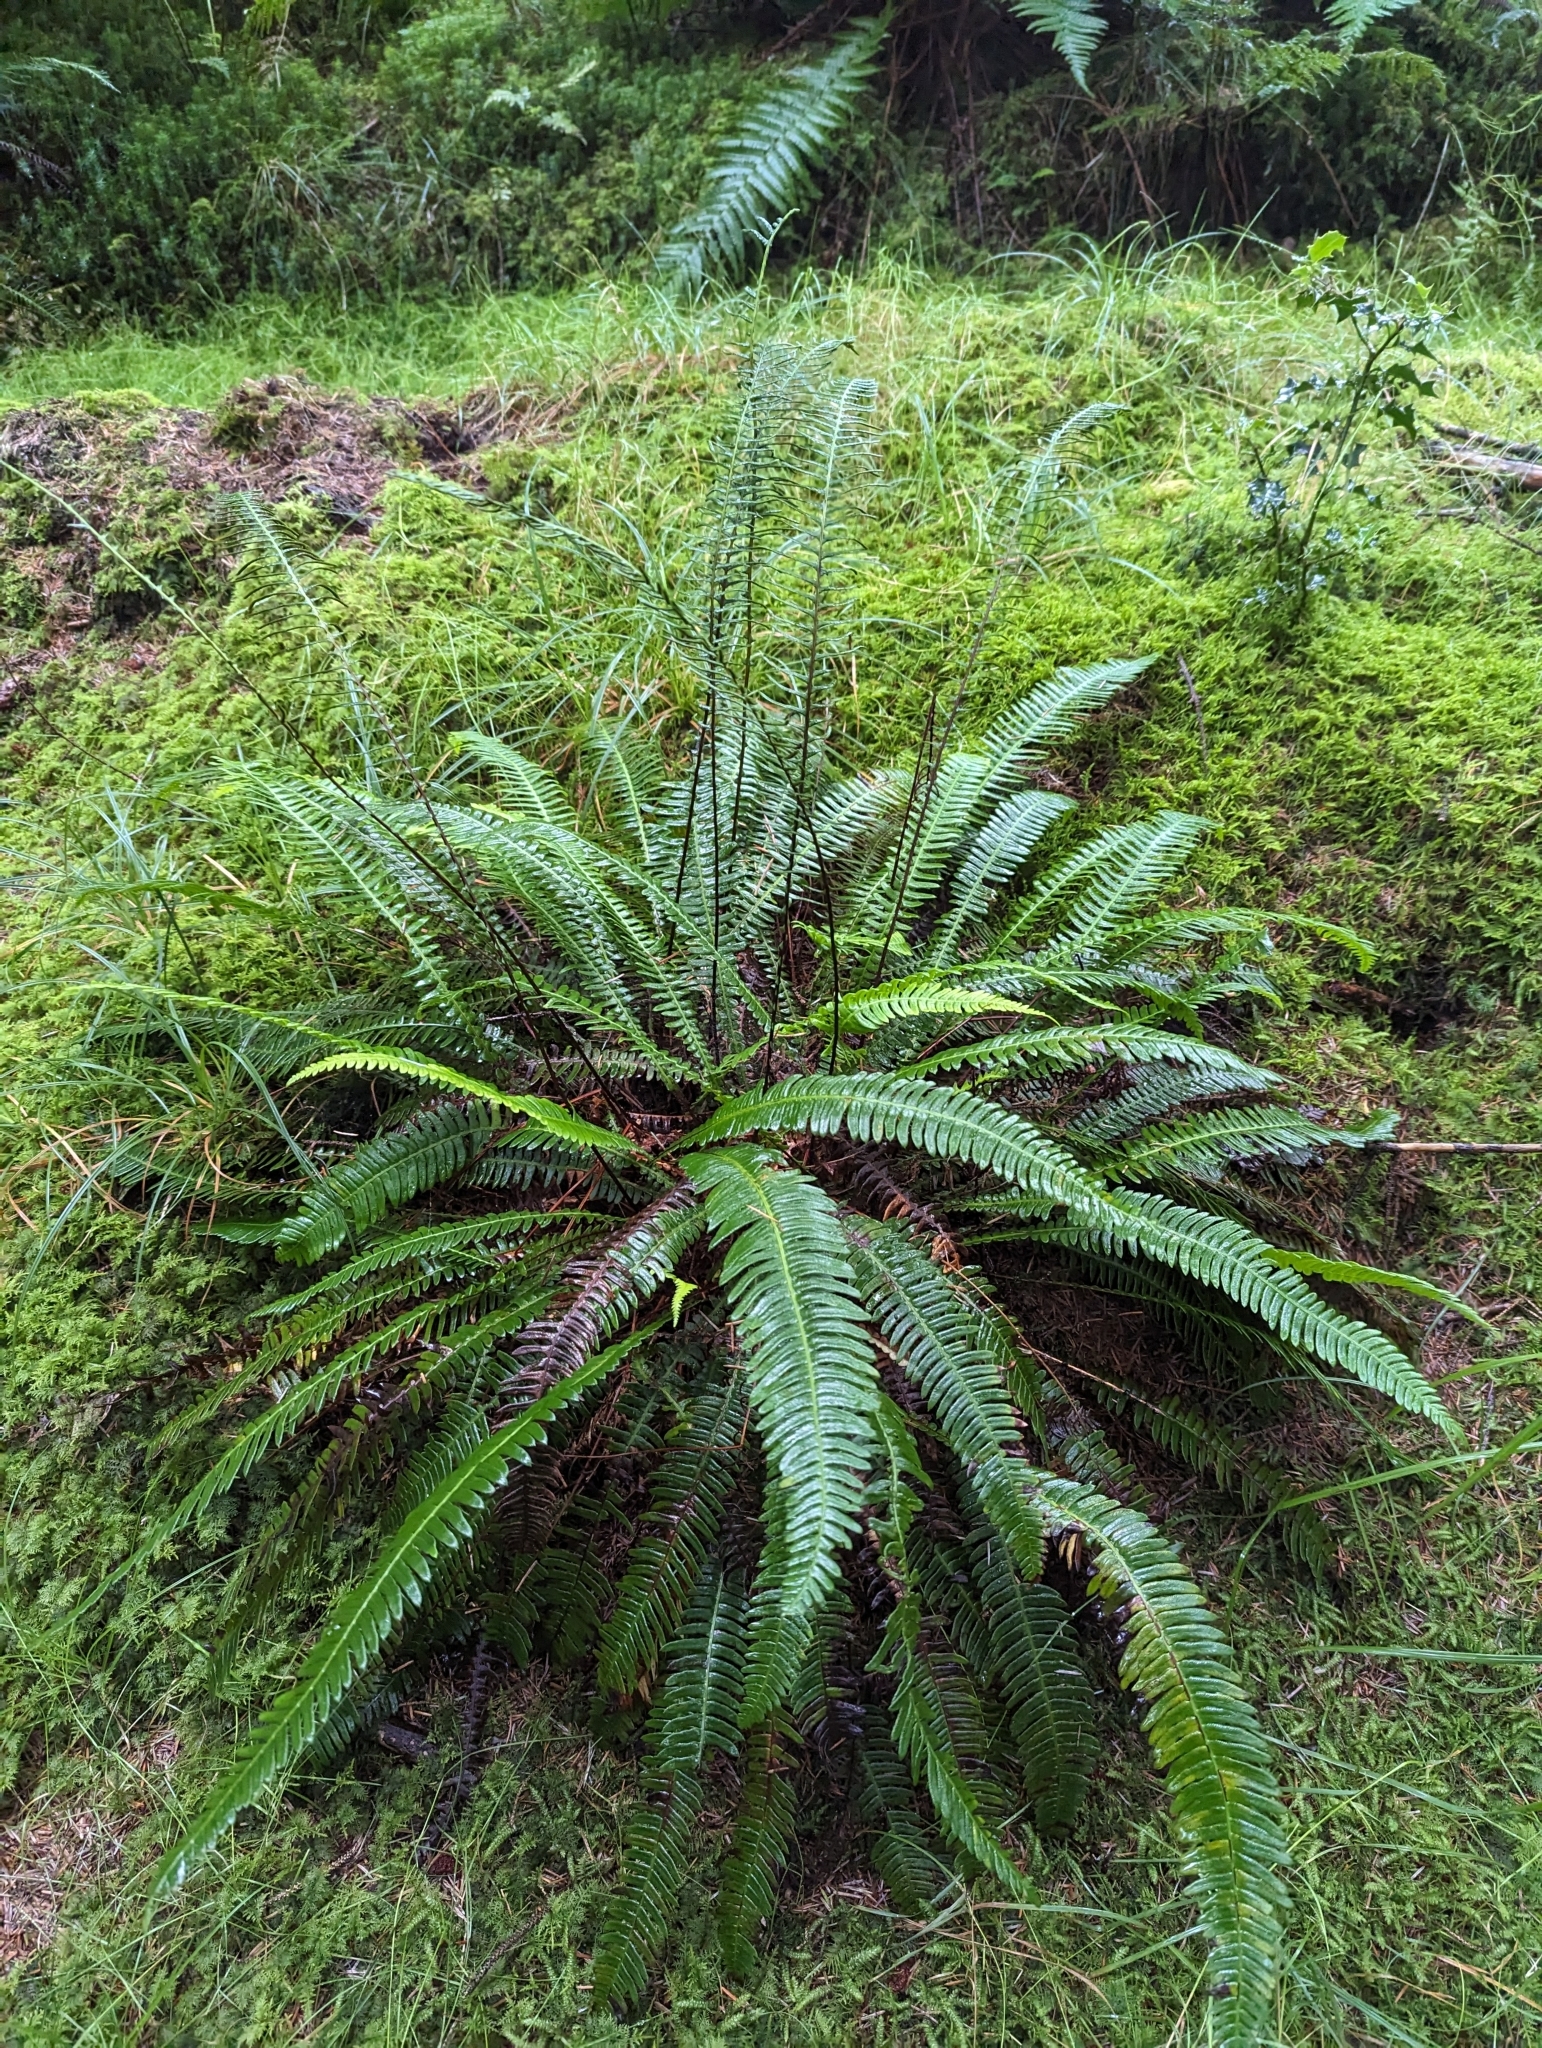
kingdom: Plantae
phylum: Tracheophyta
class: Polypodiopsida
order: Polypodiales
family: Blechnaceae
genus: Struthiopteris
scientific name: Struthiopteris spicant
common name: Deer fern
